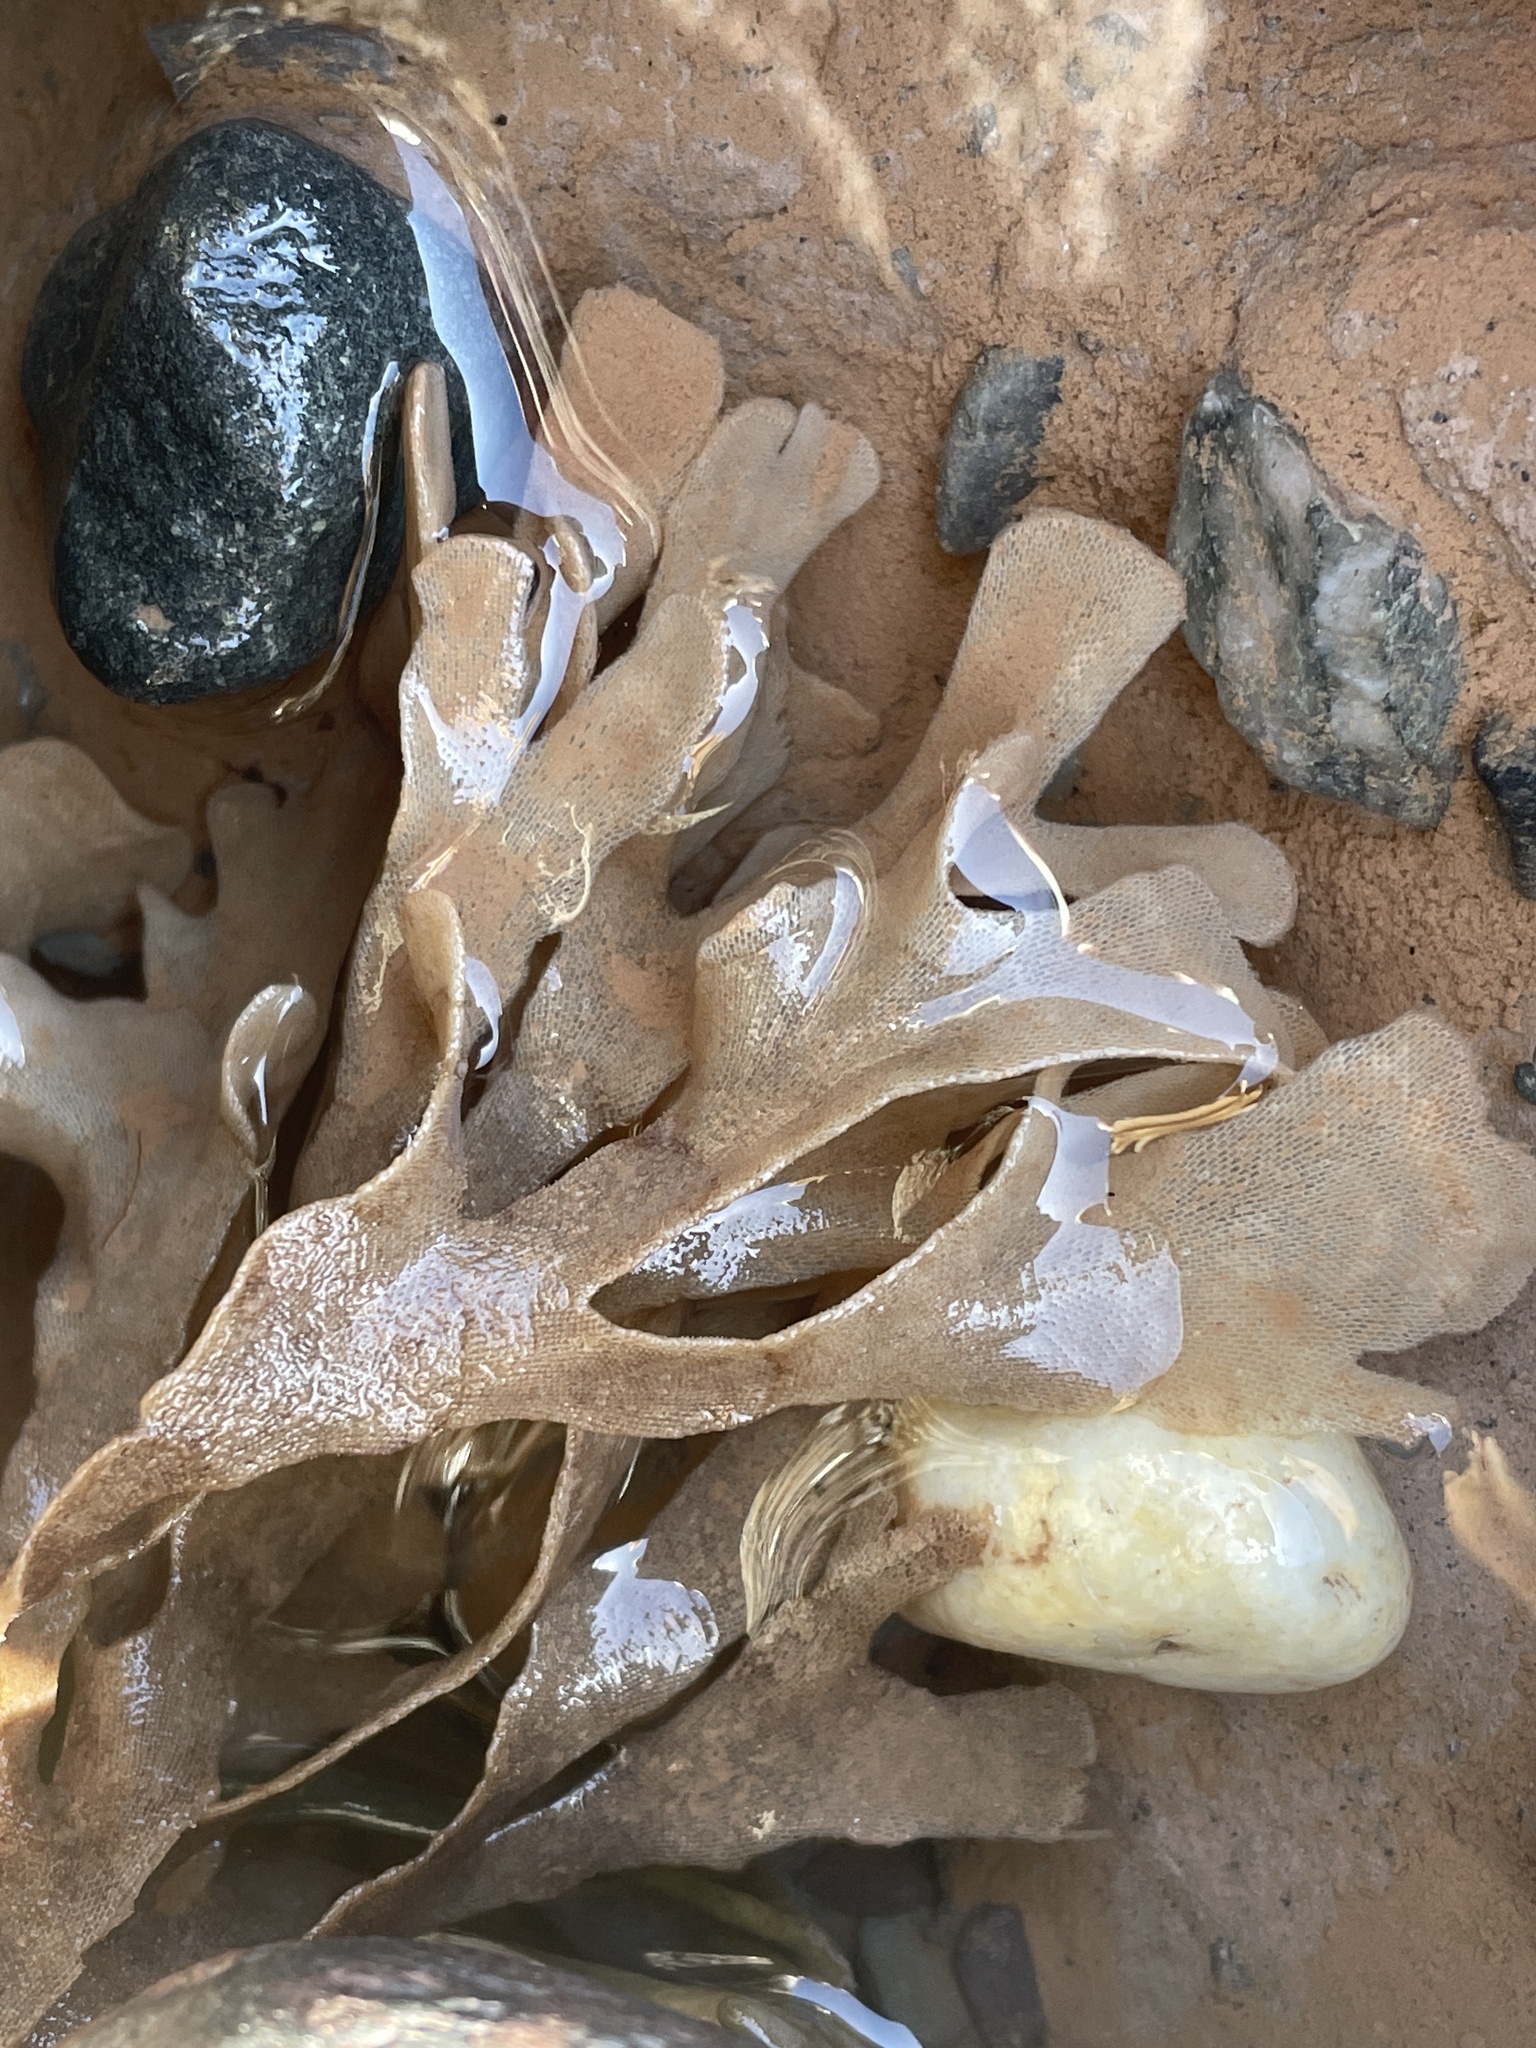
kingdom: Animalia
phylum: Bryozoa
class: Gymnolaemata
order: Cheilostomatida
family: Flustridae
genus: Flustra
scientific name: Flustra foliacea
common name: Hornwrack
